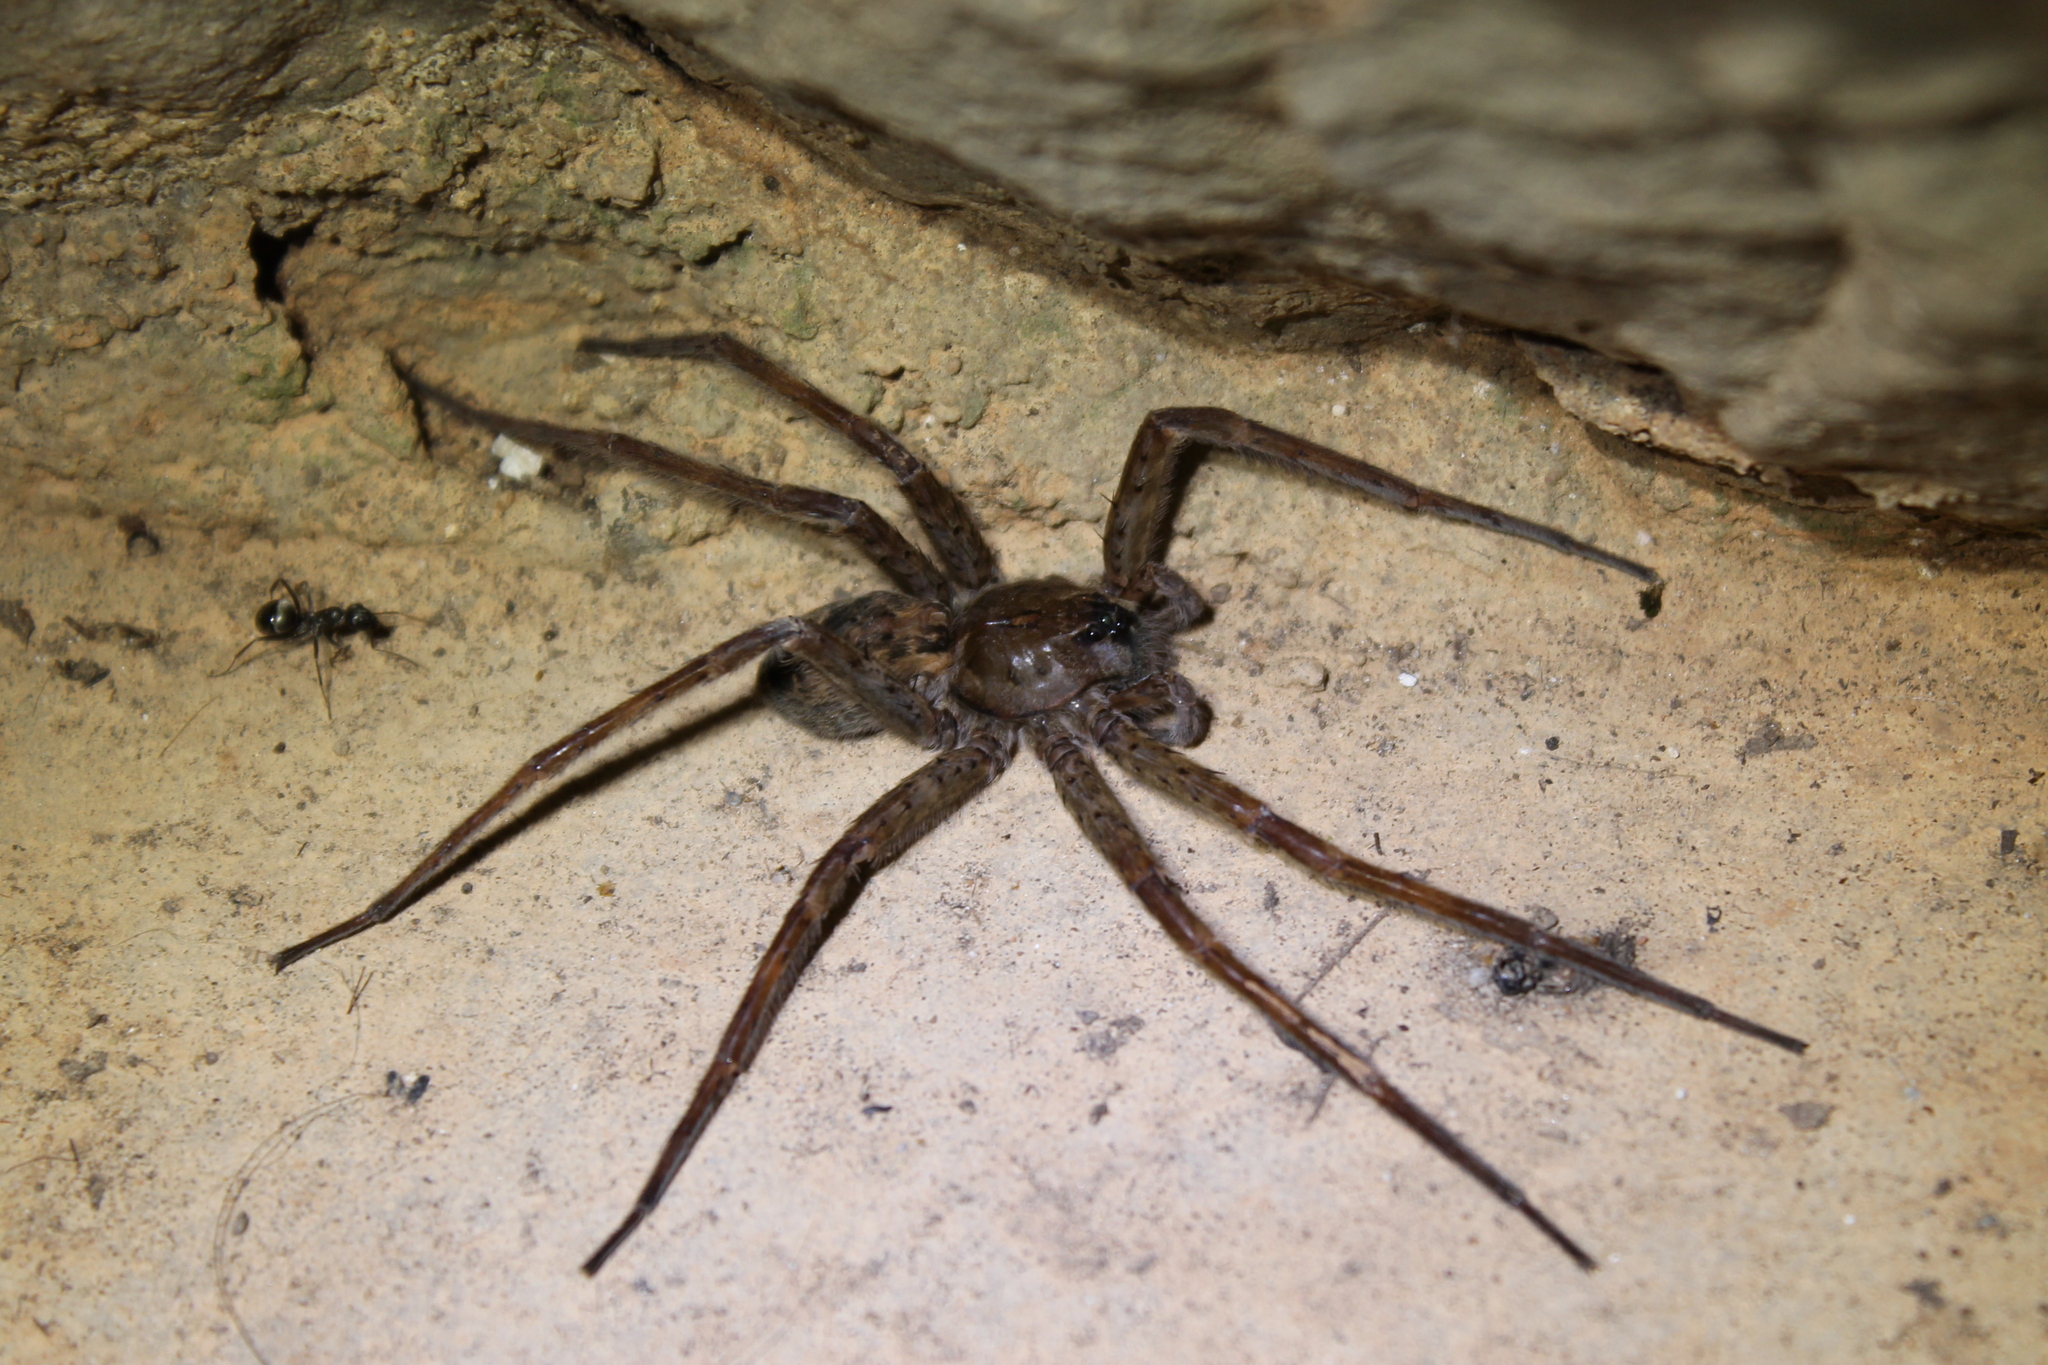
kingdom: Animalia
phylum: Arthropoda
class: Arachnida
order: Araneae
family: Pisauridae
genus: Dolomedes
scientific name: Dolomedes tenebrosus
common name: Dark fishing spider
